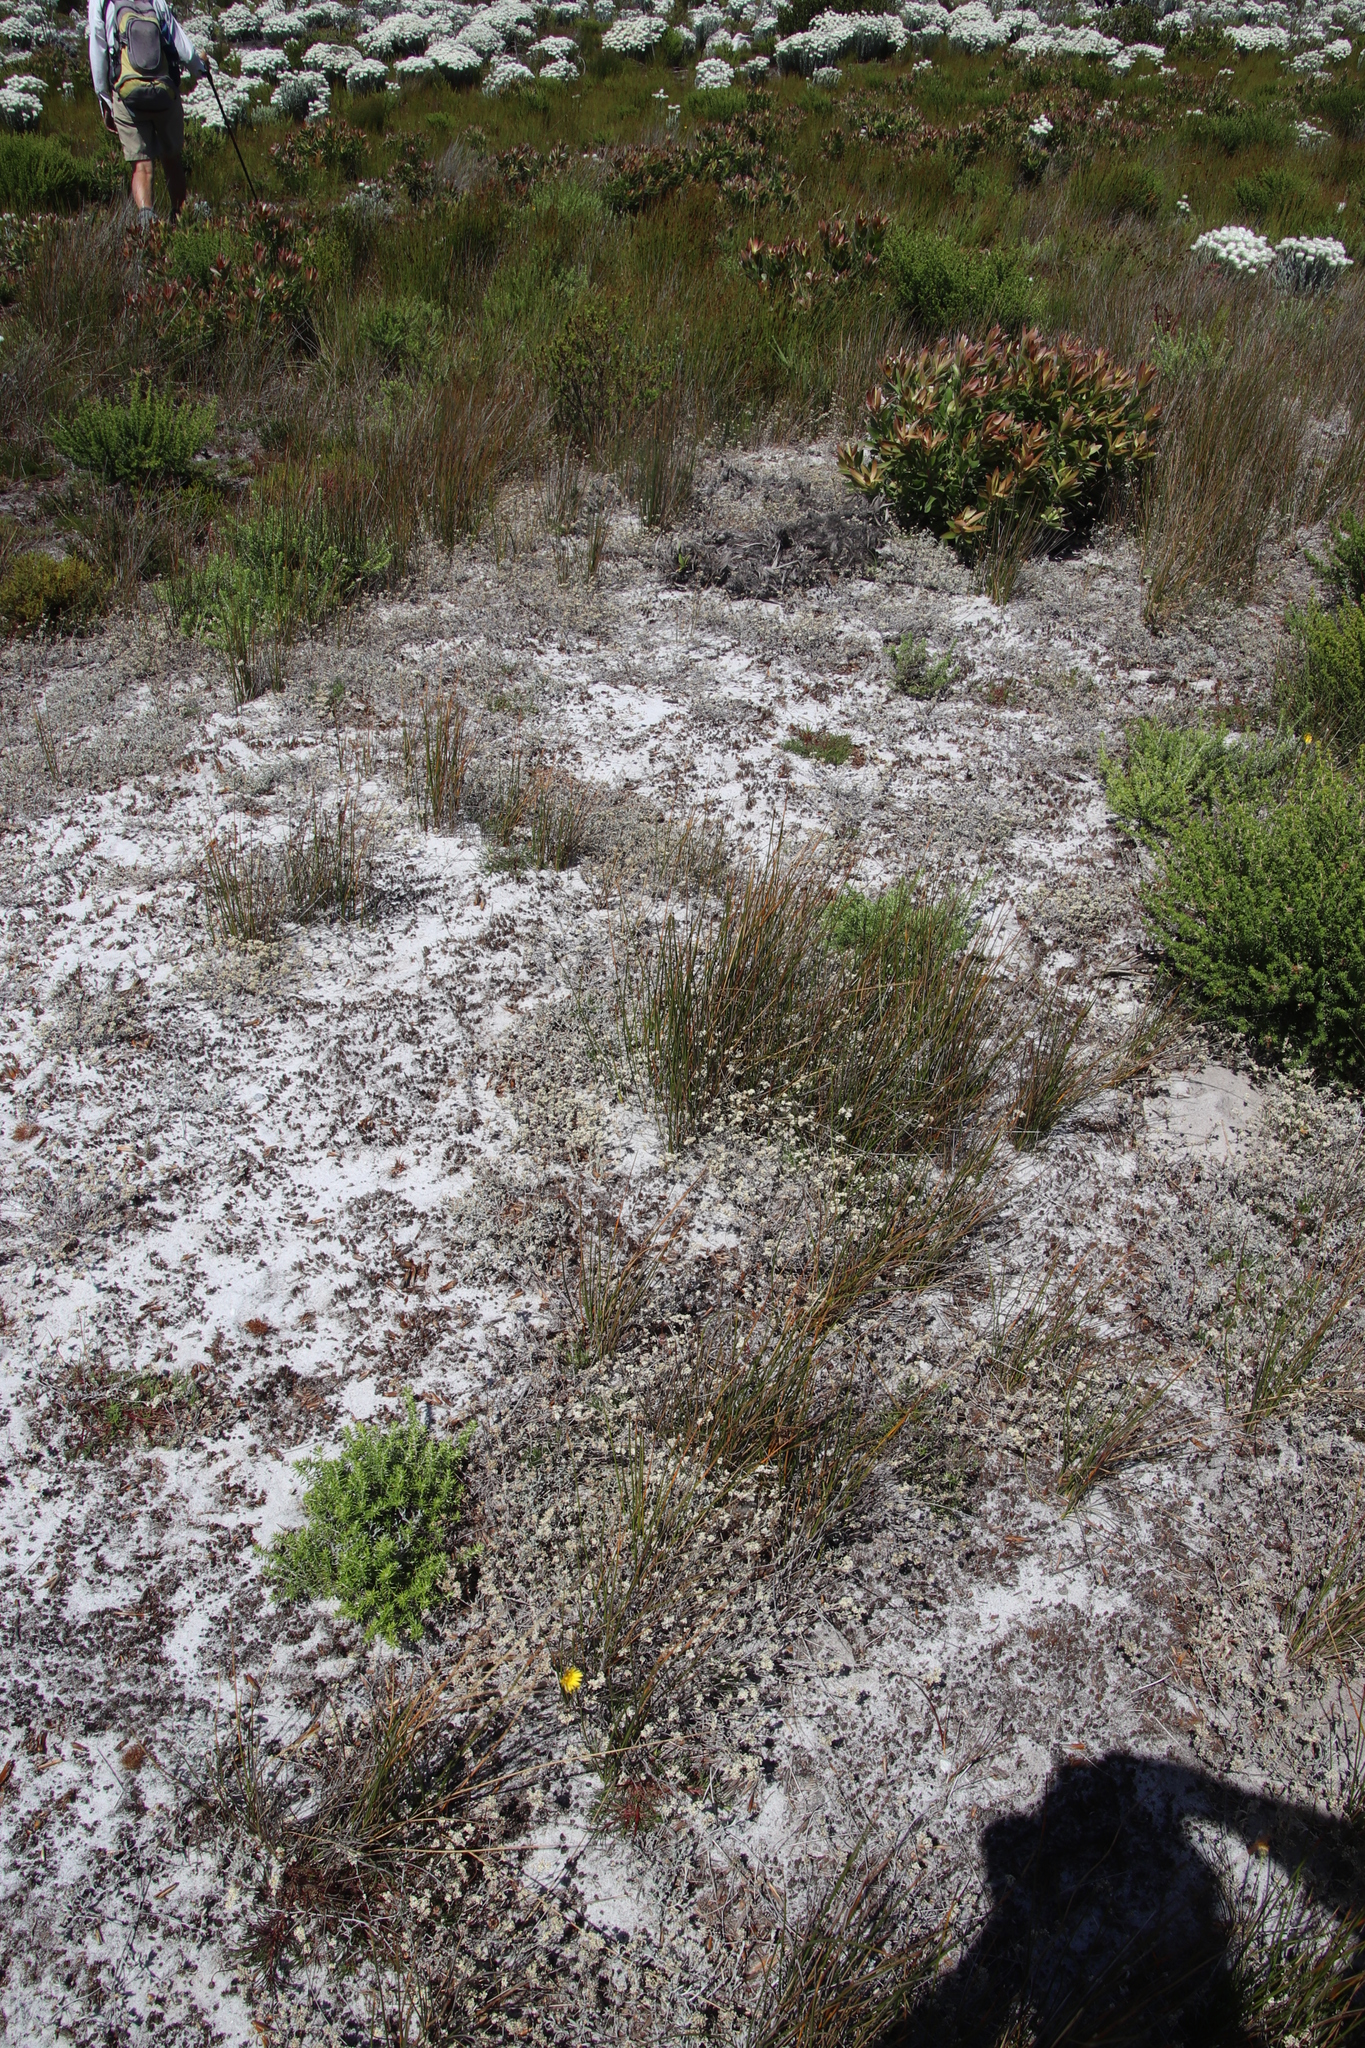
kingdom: Plantae
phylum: Tracheophyta
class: Magnoliopsida
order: Ericales
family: Ericaceae
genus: Erica
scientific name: Erica bruniades
